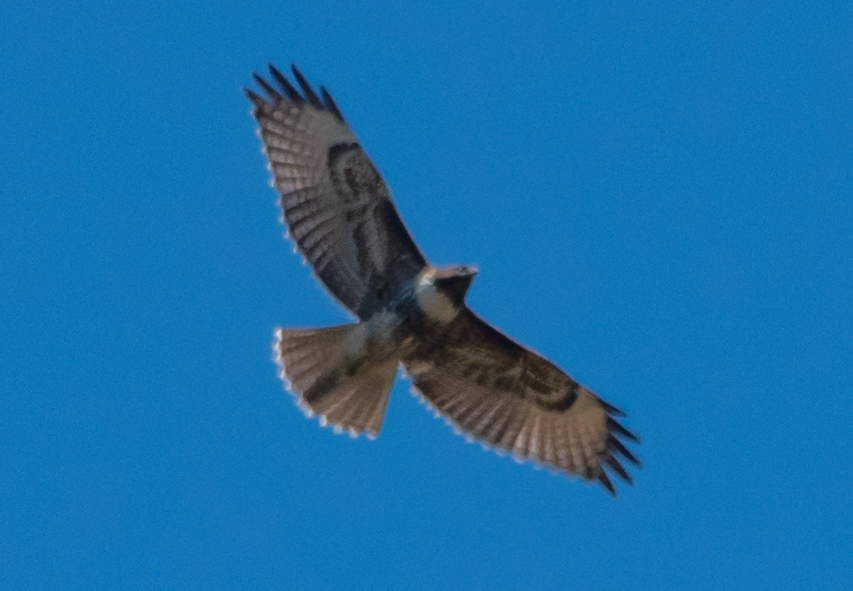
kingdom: Animalia
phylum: Chordata
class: Aves
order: Accipitriformes
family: Accipitridae
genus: Buteo
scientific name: Buteo jamaicensis
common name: Red-tailed hawk
